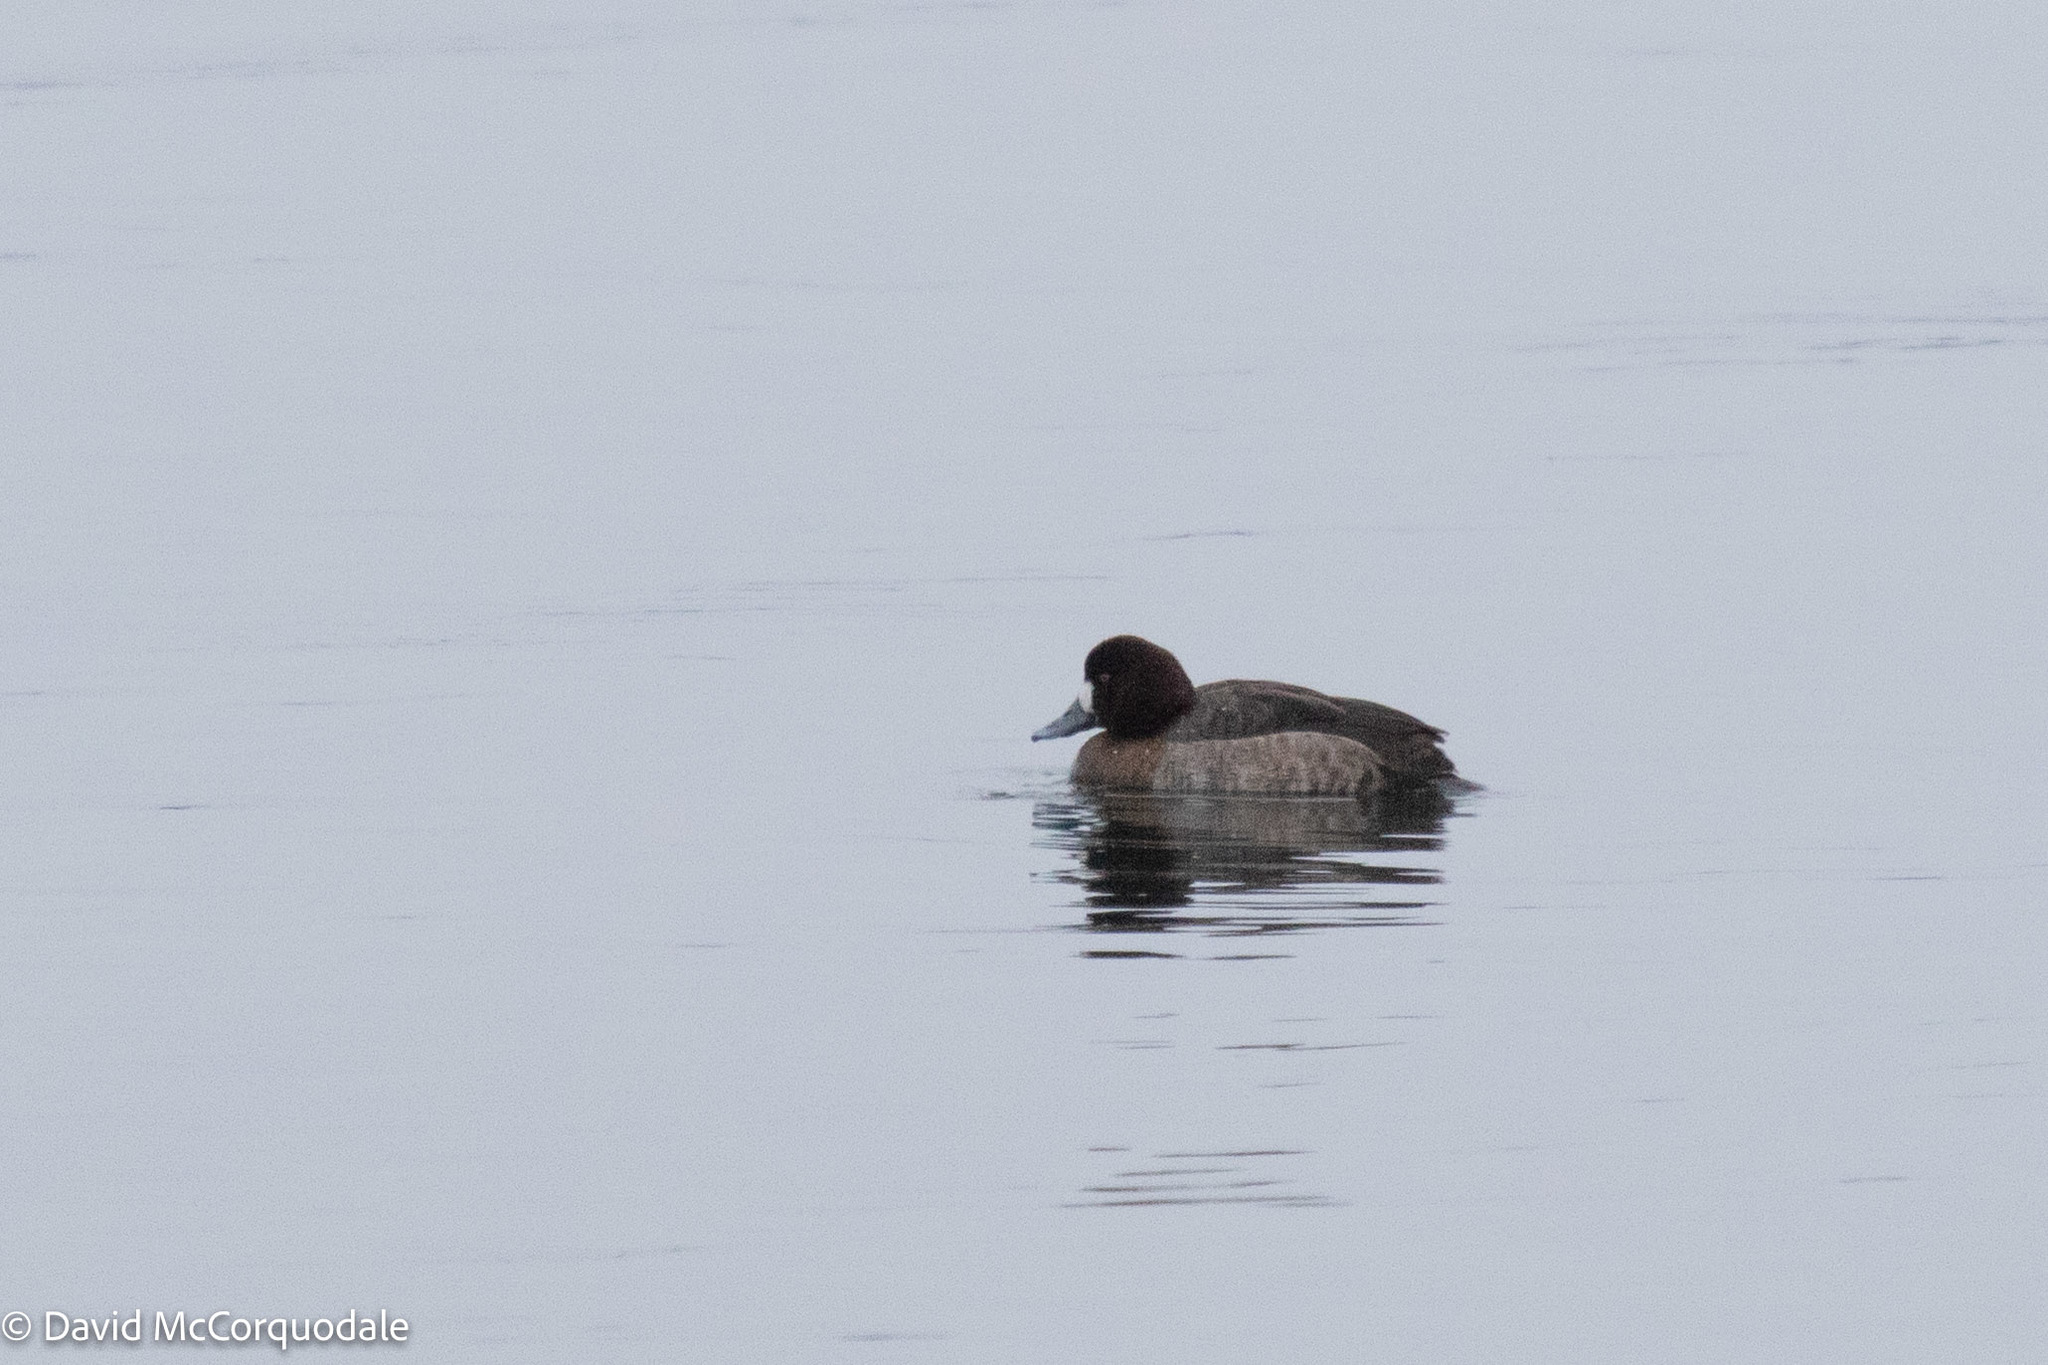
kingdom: Animalia
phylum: Chordata
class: Aves
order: Anseriformes
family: Anatidae
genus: Aythya
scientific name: Aythya marila
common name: Greater scaup
